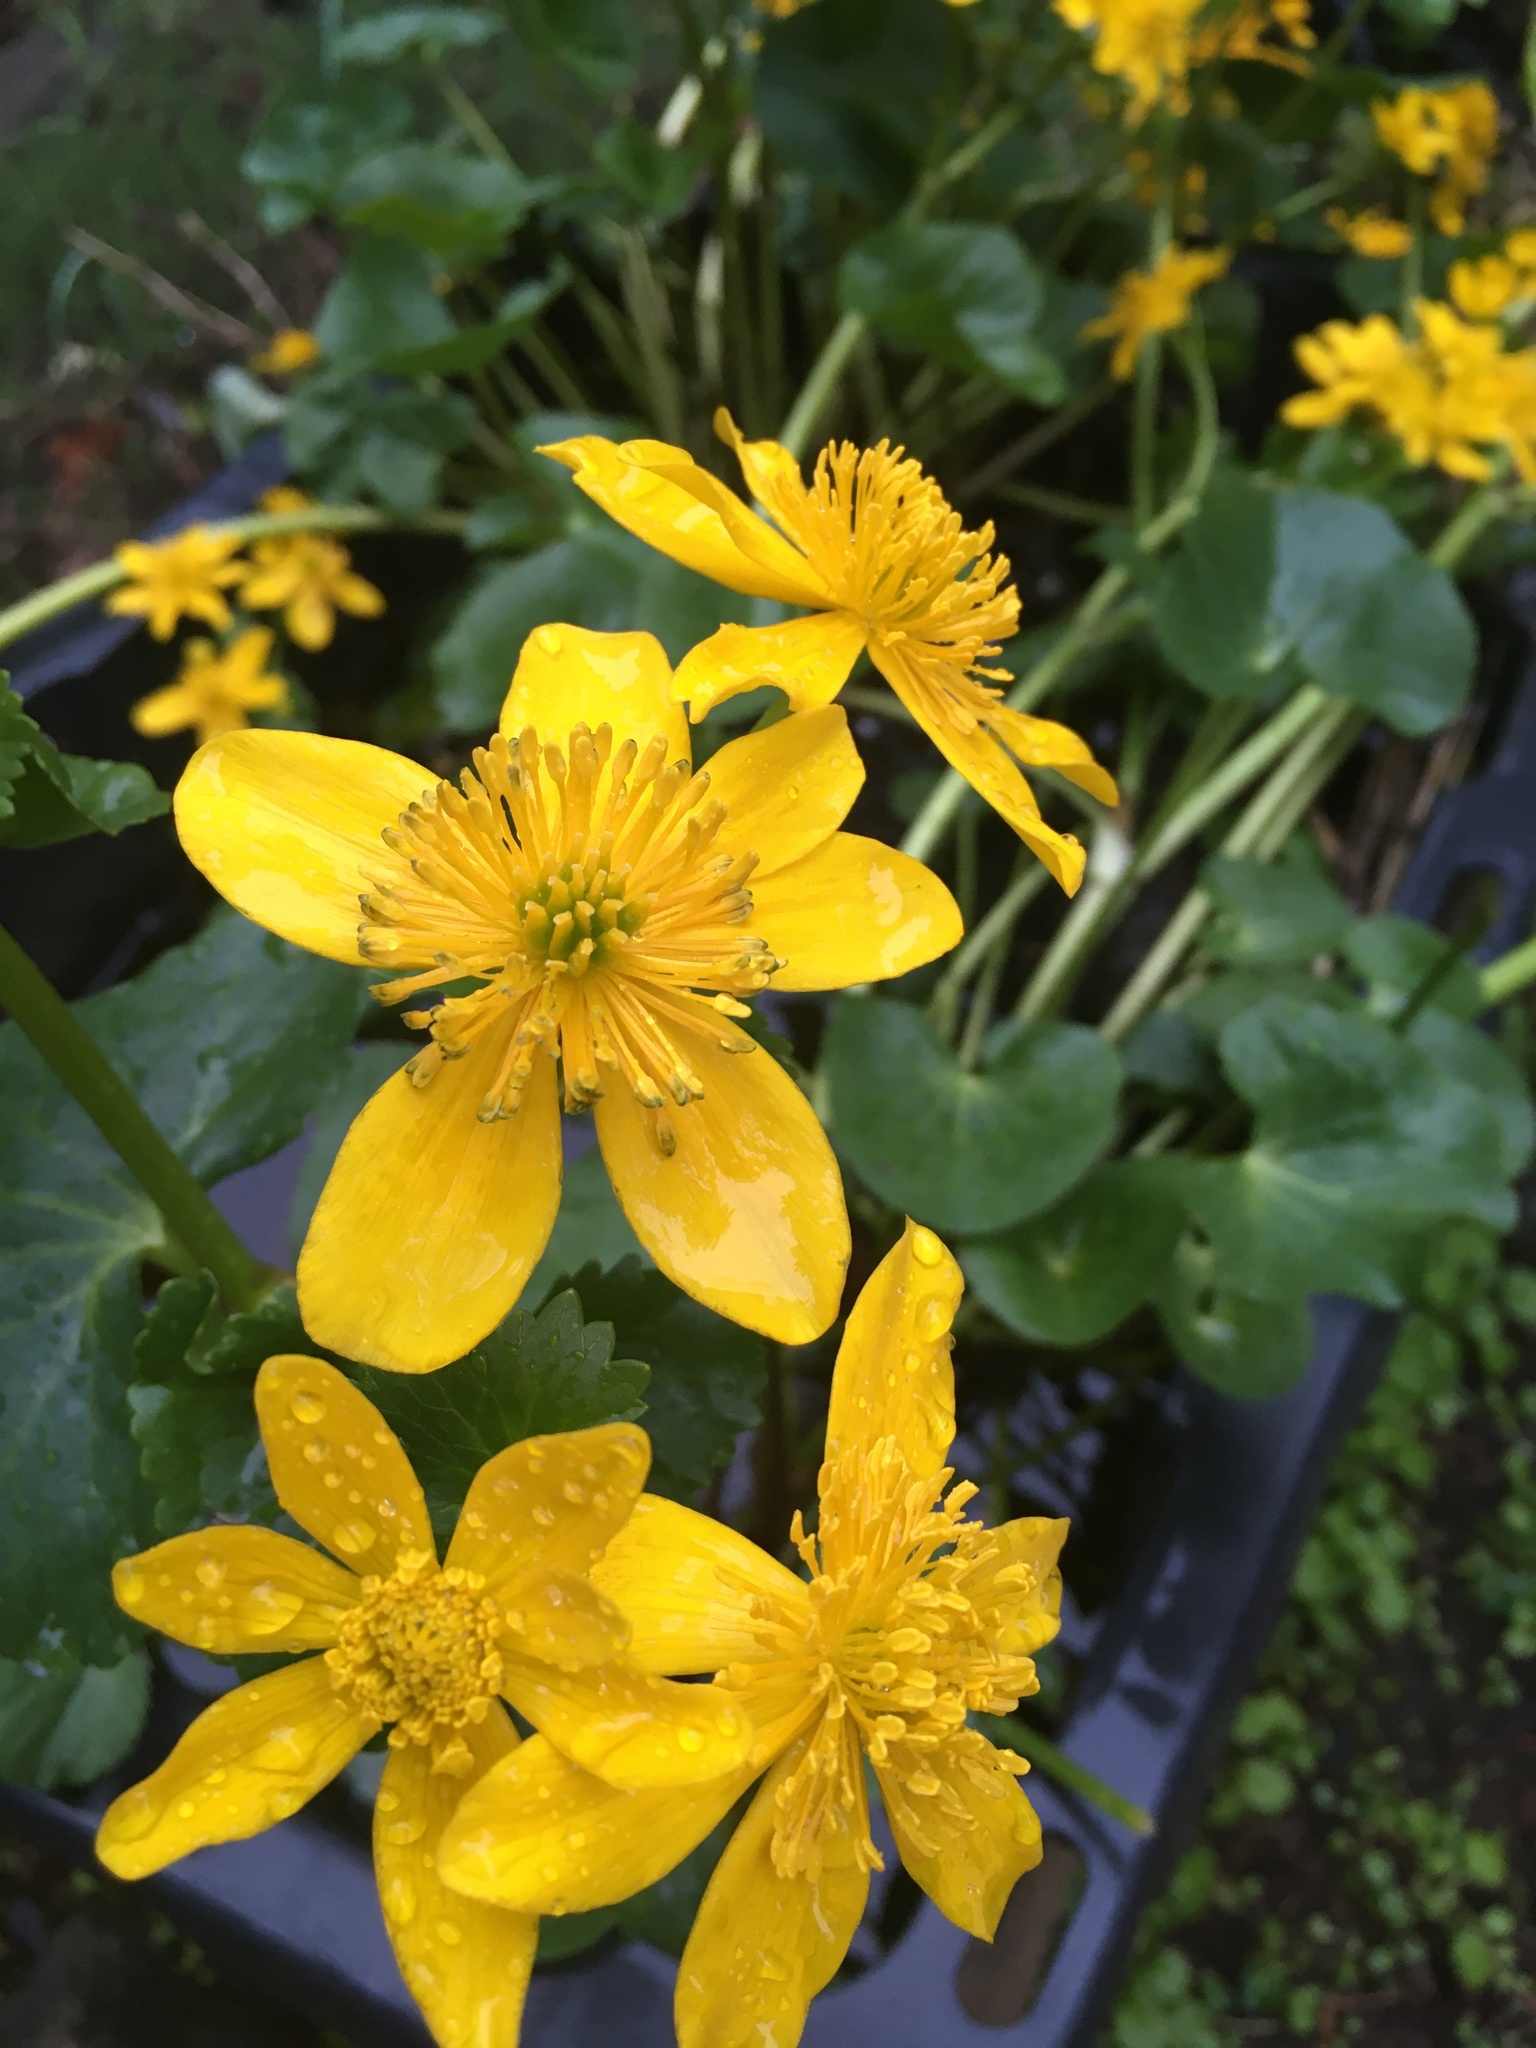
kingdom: Plantae
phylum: Tracheophyta
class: Magnoliopsida
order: Ranunculales
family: Ranunculaceae
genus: Caltha
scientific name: Caltha palustris
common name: Marsh marigold
